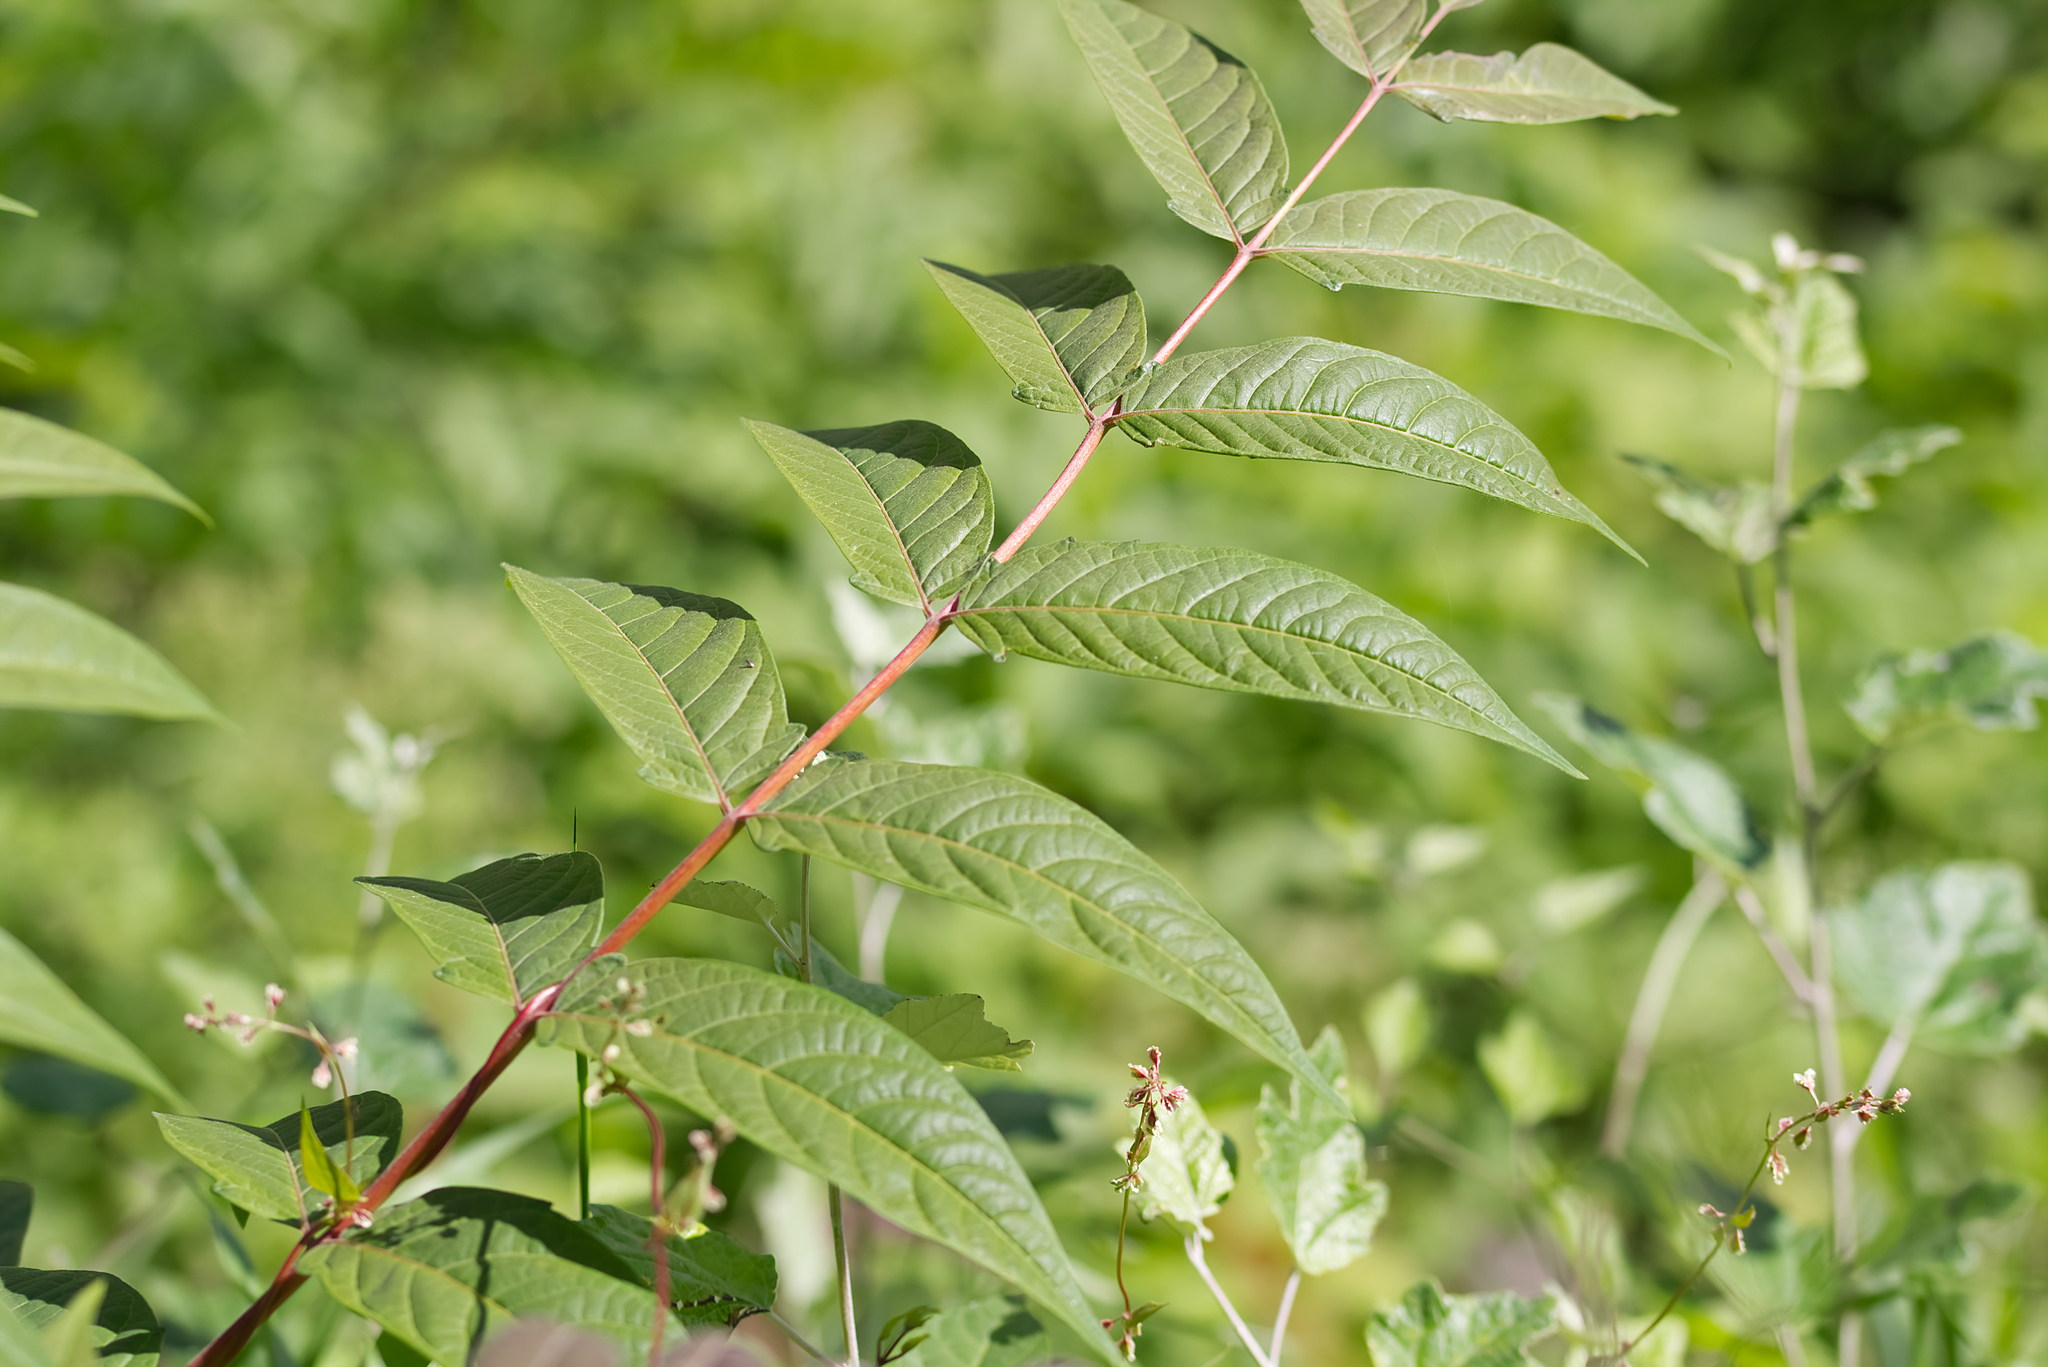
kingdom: Plantae
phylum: Tracheophyta
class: Magnoliopsida
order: Sapindales
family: Simaroubaceae
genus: Ailanthus
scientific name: Ailanthus altissima
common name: Tree-of-heaven
